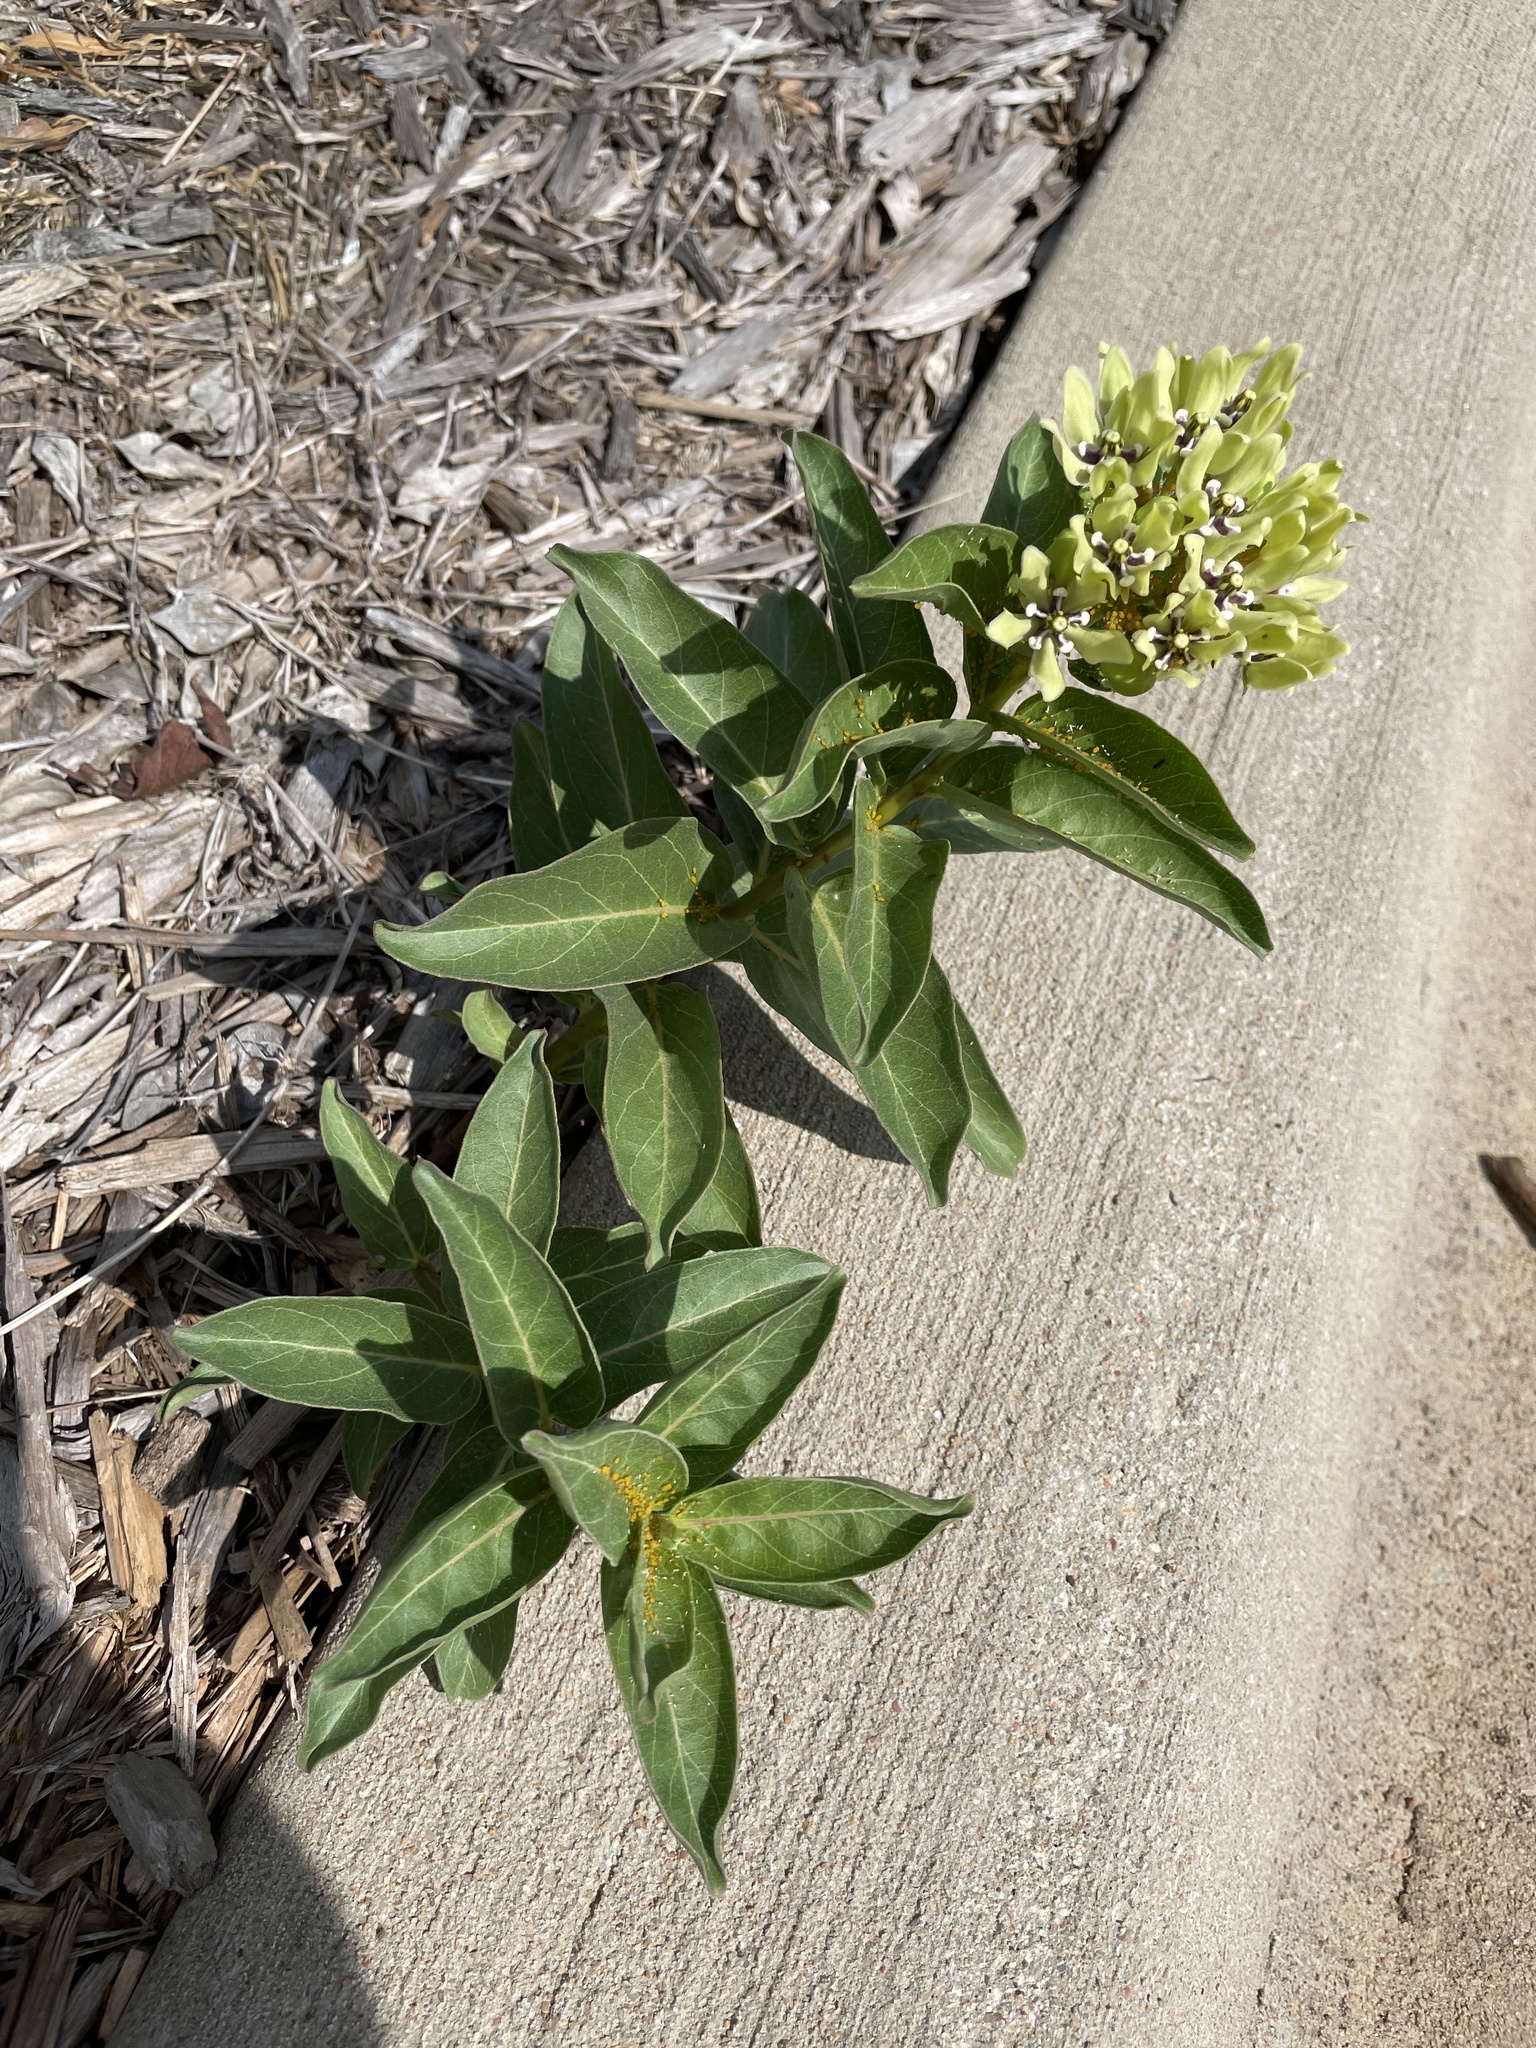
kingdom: Plantae
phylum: Tracheophyta
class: Magnoliopsida
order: Gentianales
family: Apocynaceae
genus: Asclepias
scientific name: Asclepias viridis
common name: Antelope-horns
